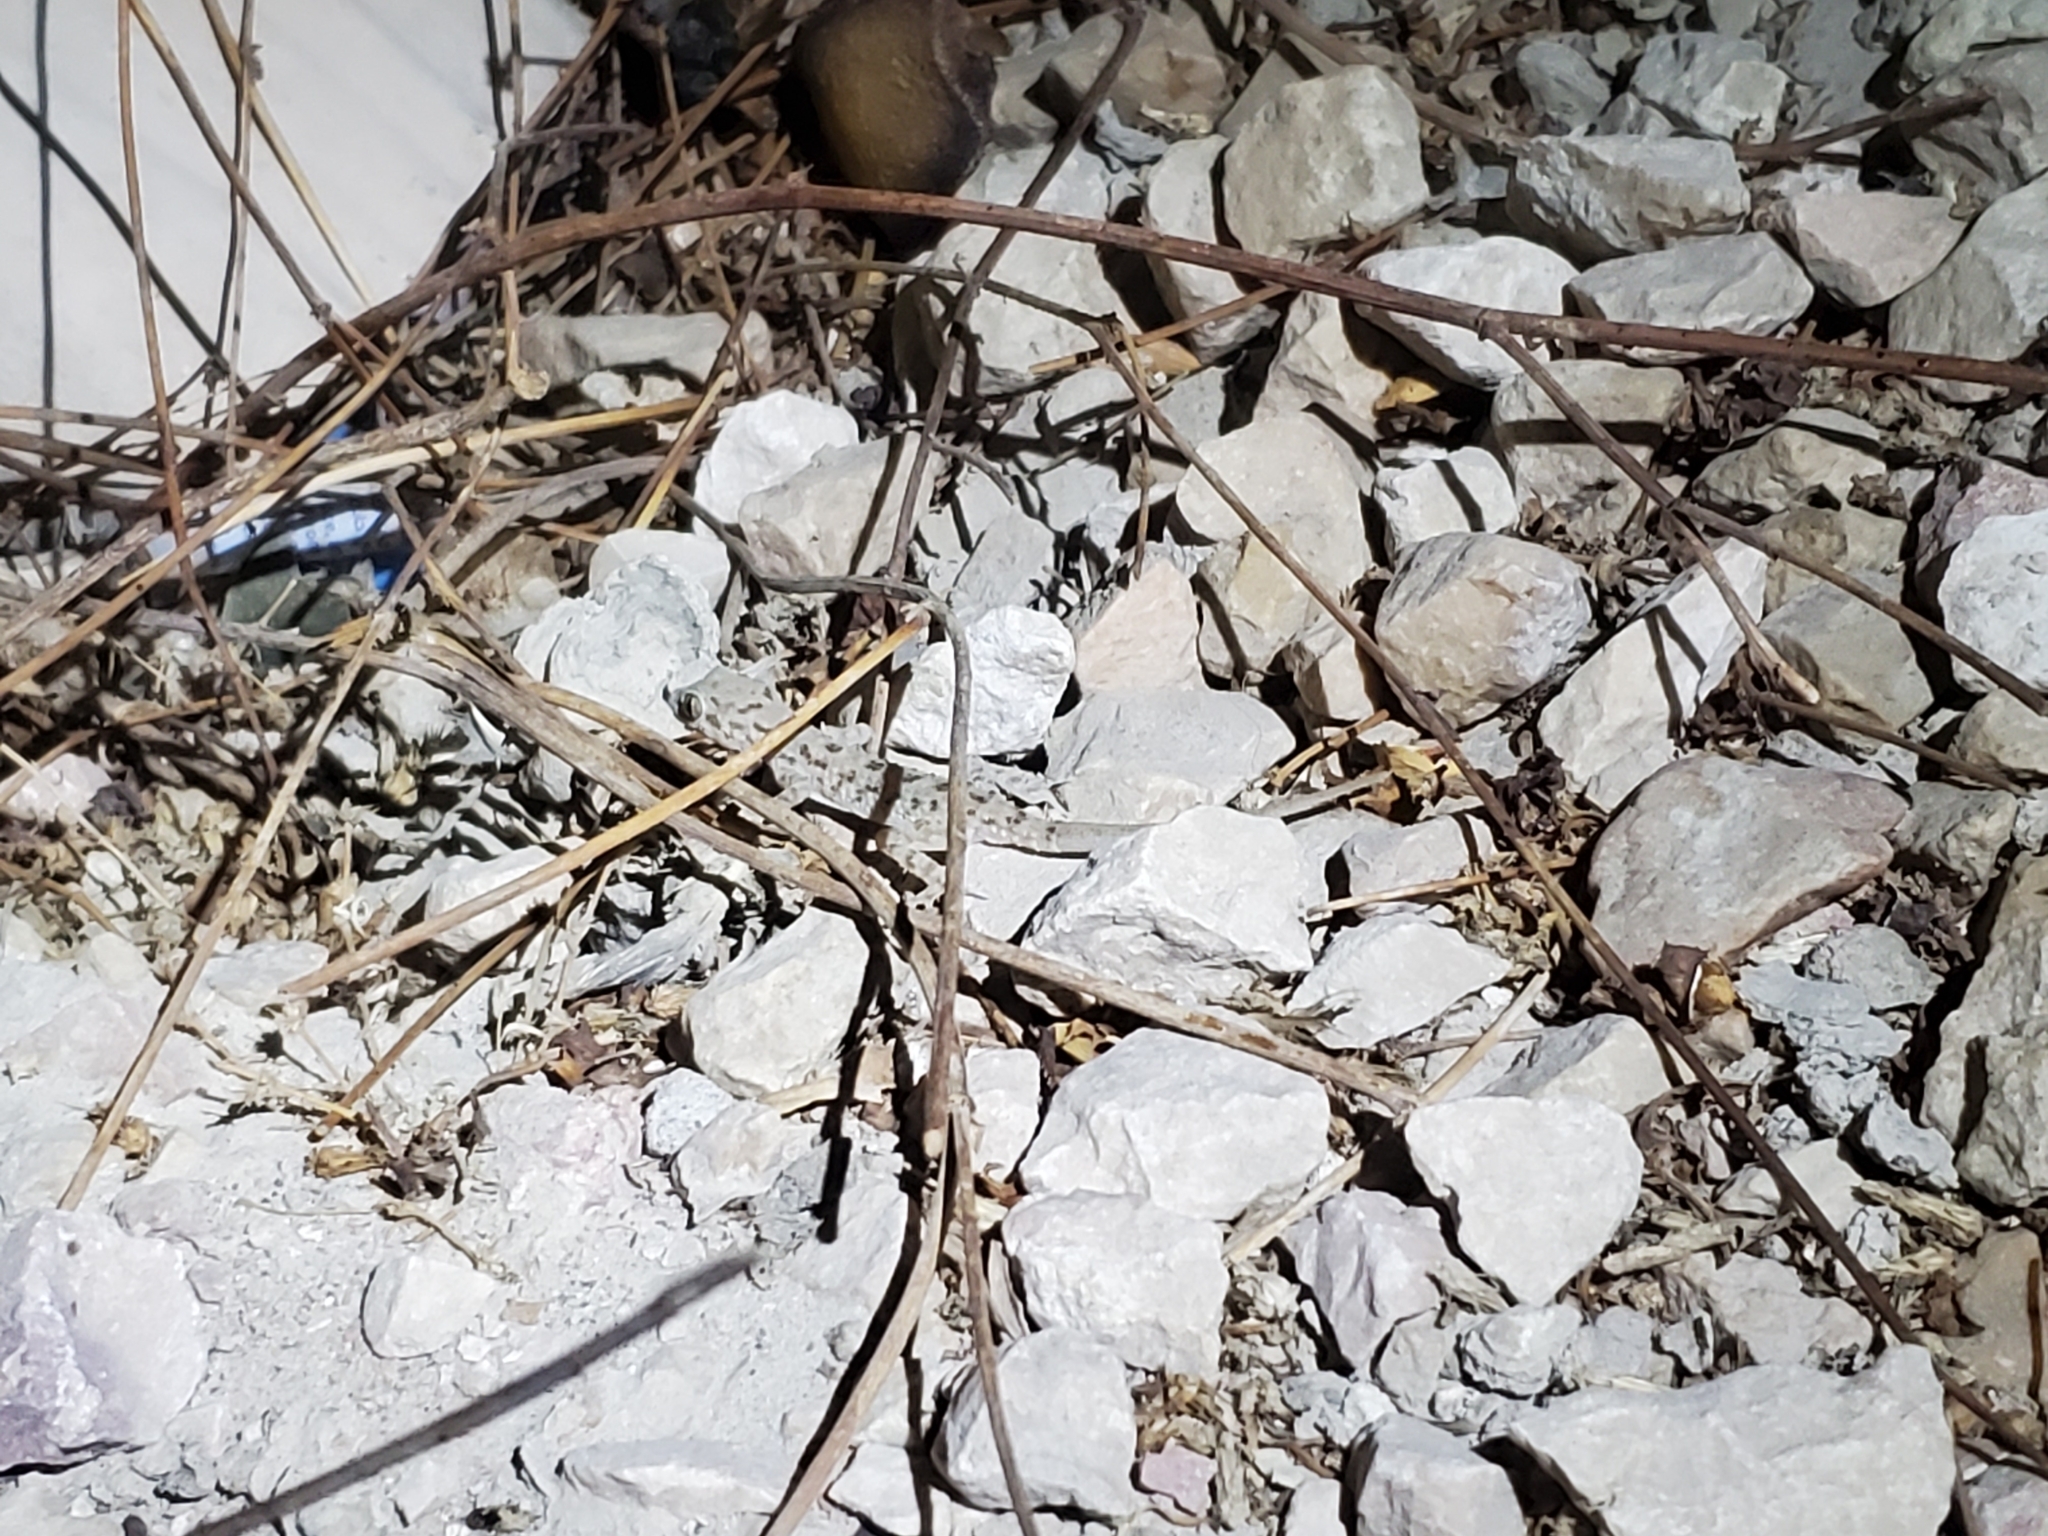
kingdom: Animalia
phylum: Chordata
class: Squamata
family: Gekkonidae
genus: Cyrtopodion
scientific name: Cyrtopodion scabrum
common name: Rough-tailed gecko
